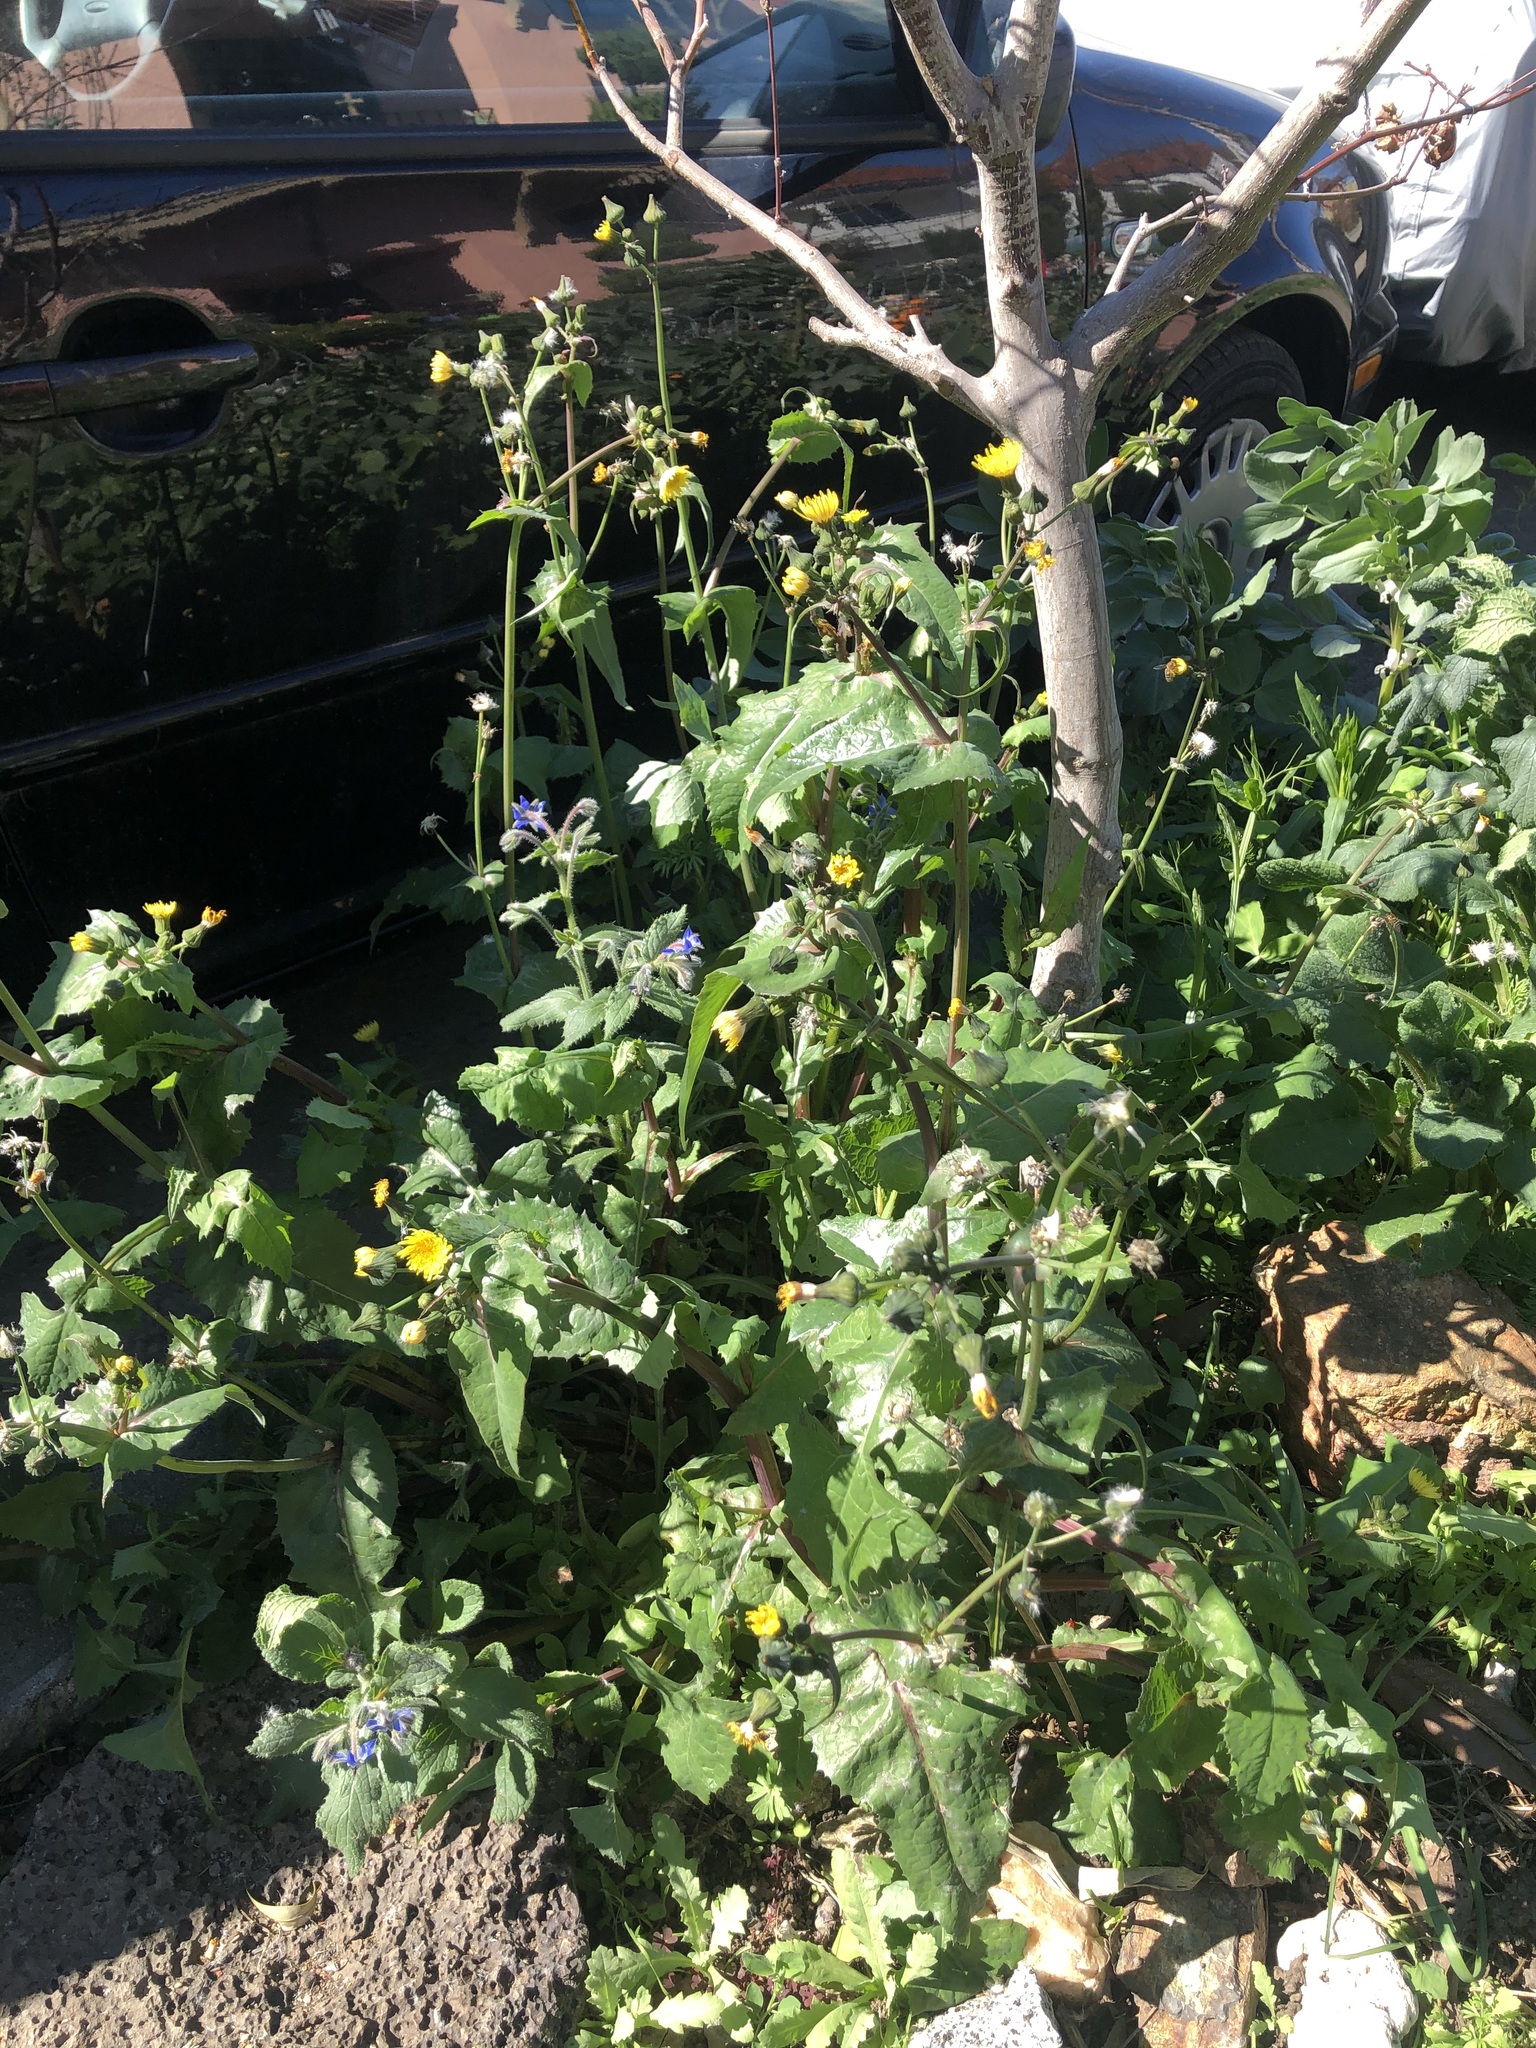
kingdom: Plantae
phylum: Tracheophyta
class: Magnoliopsida
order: Asterales
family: Asteraceae
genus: Sonchus
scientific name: Sonchus oleraceus
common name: Common sowthistle
